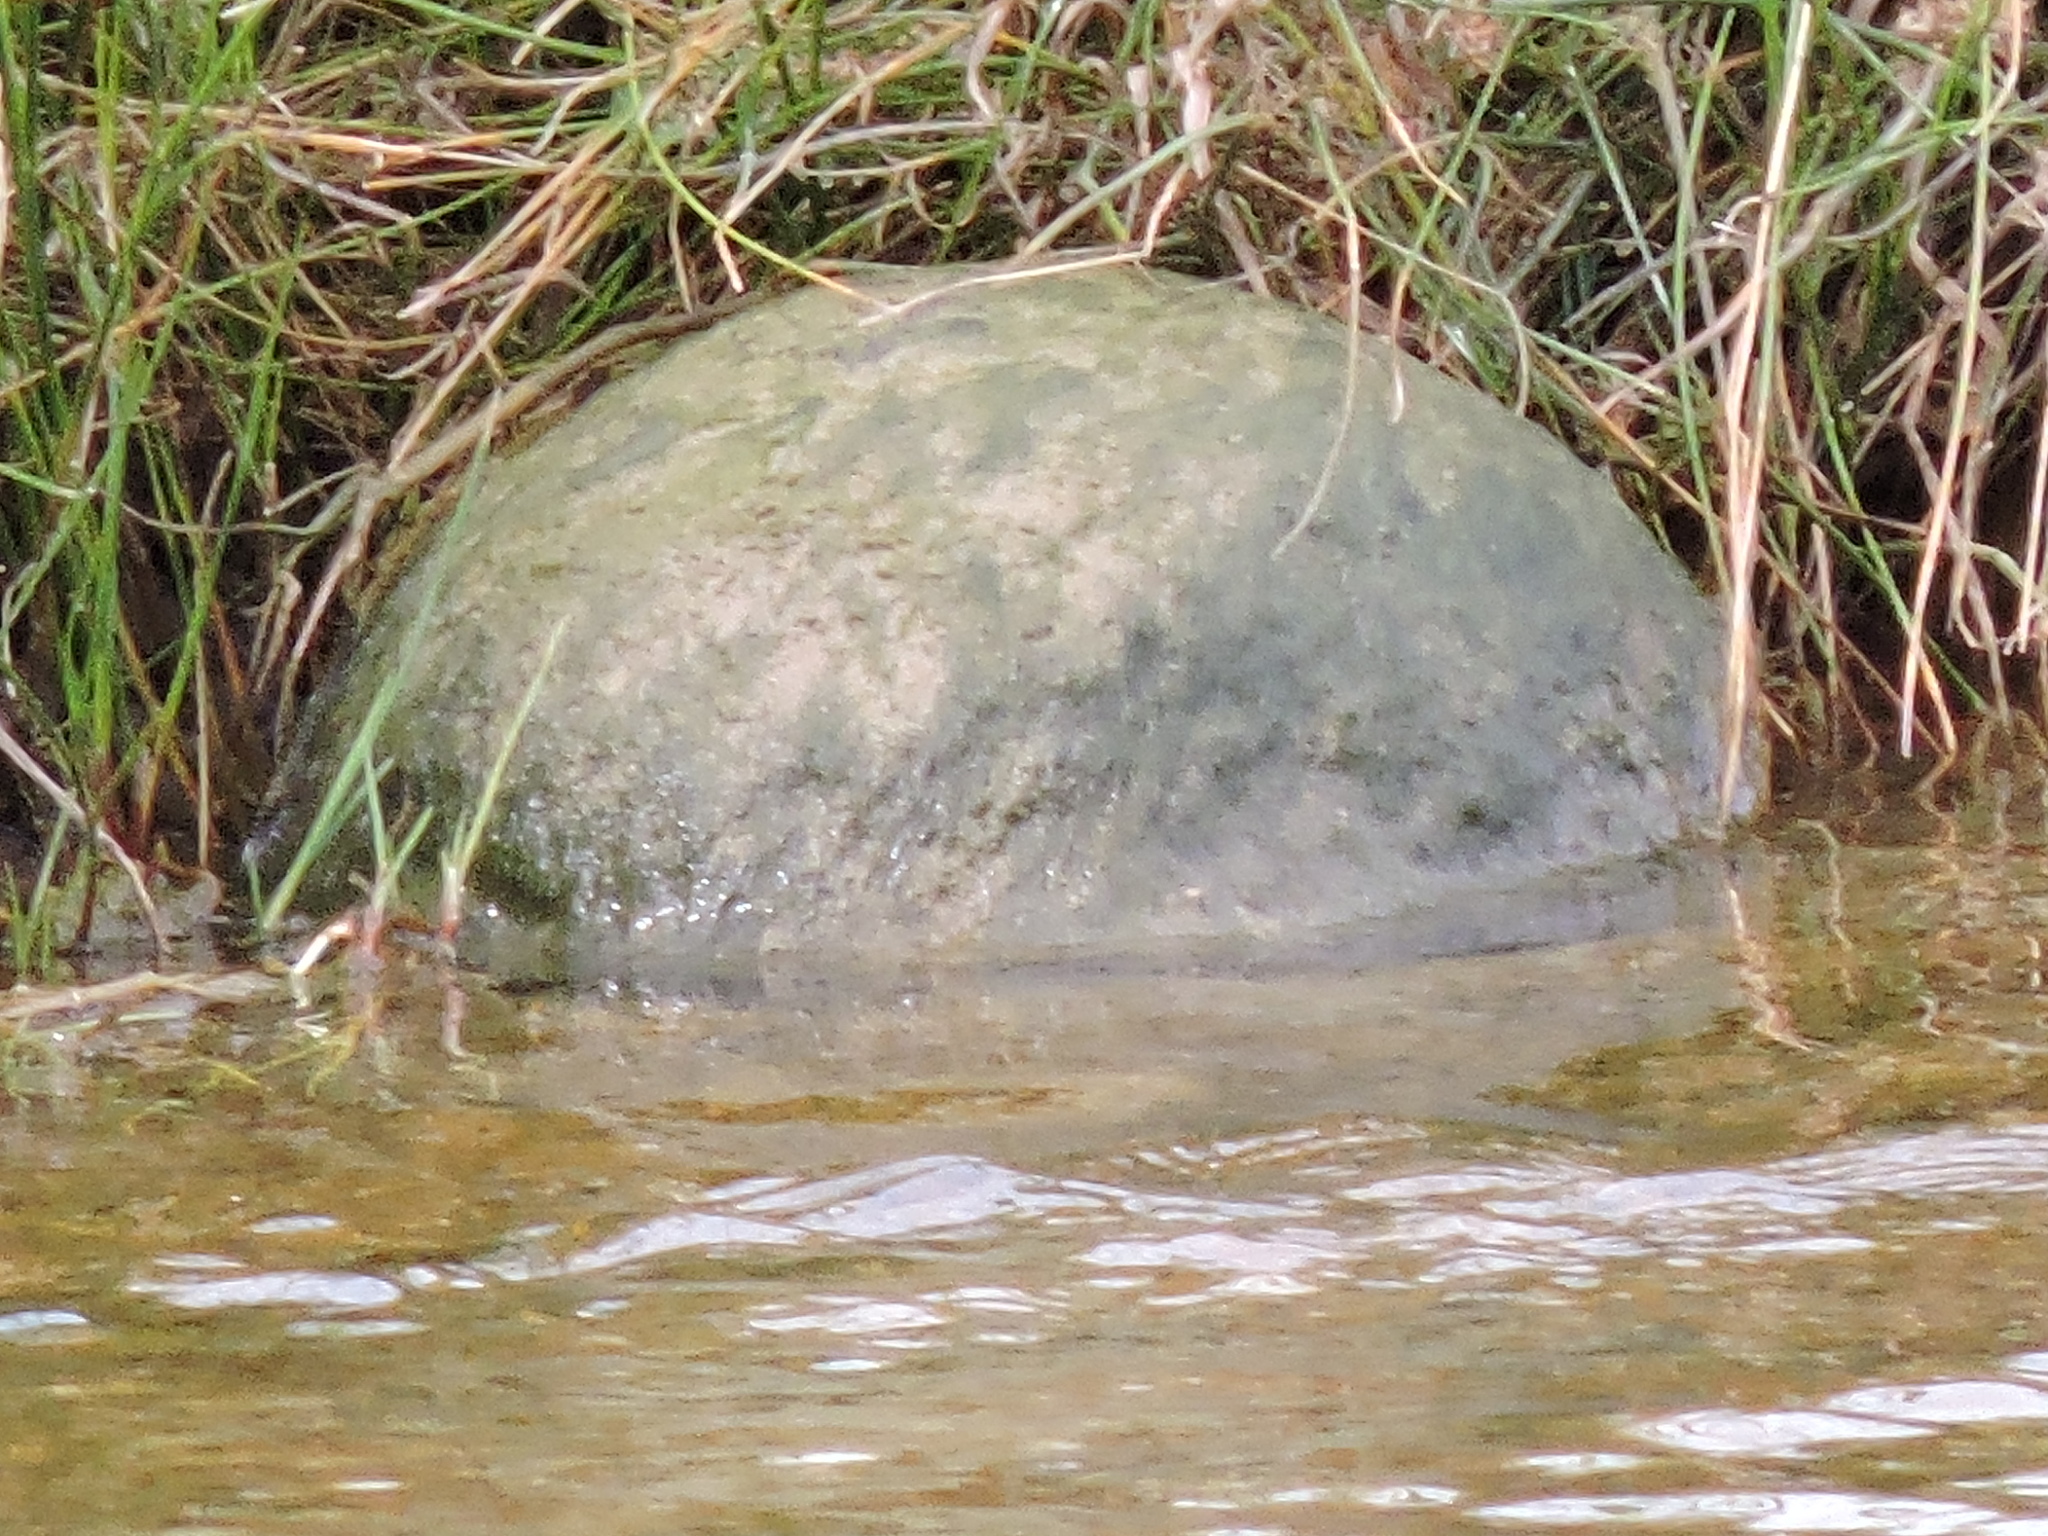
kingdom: Animalia
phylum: Chordata
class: Testudines
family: Emydidae
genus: Trachemys
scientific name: Trachemys scripta
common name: Slider
